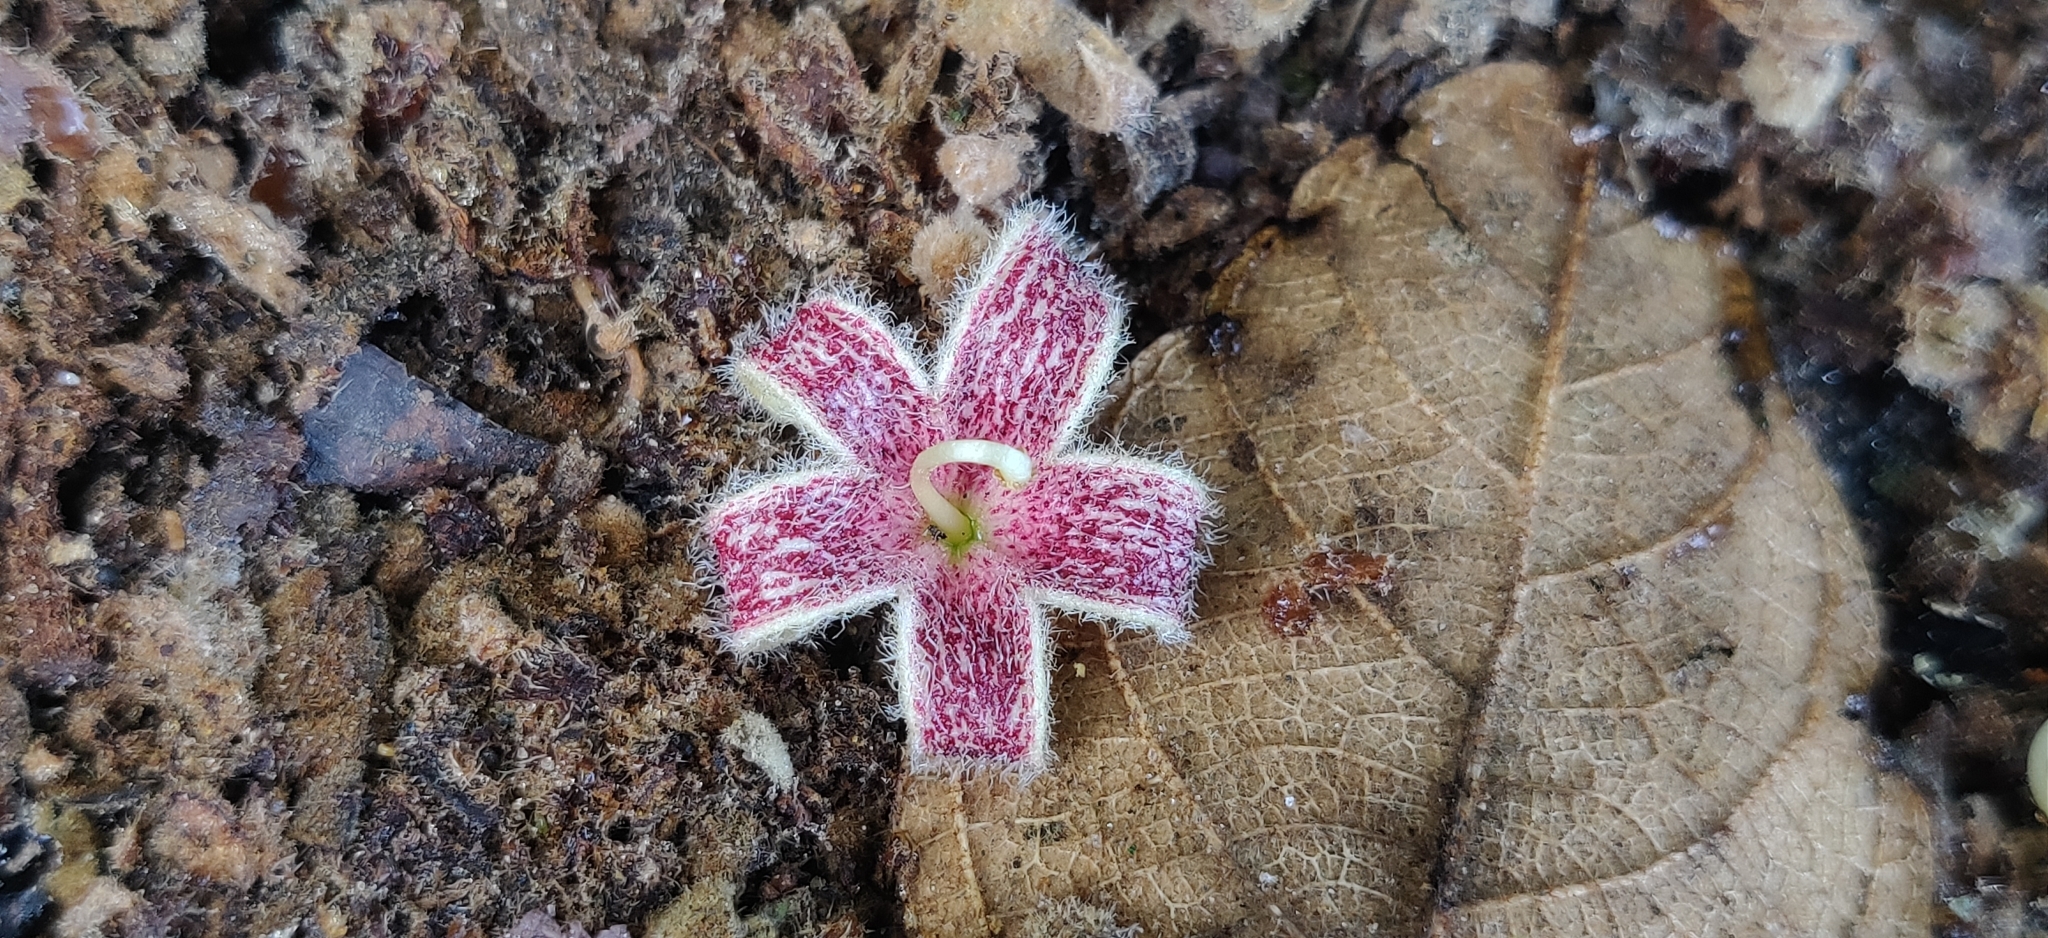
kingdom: Plantae
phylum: Tracheophyta
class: Magnoliopsida
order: Malvales
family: Malvaceae
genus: Sterculia
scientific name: Sterculia guttata
